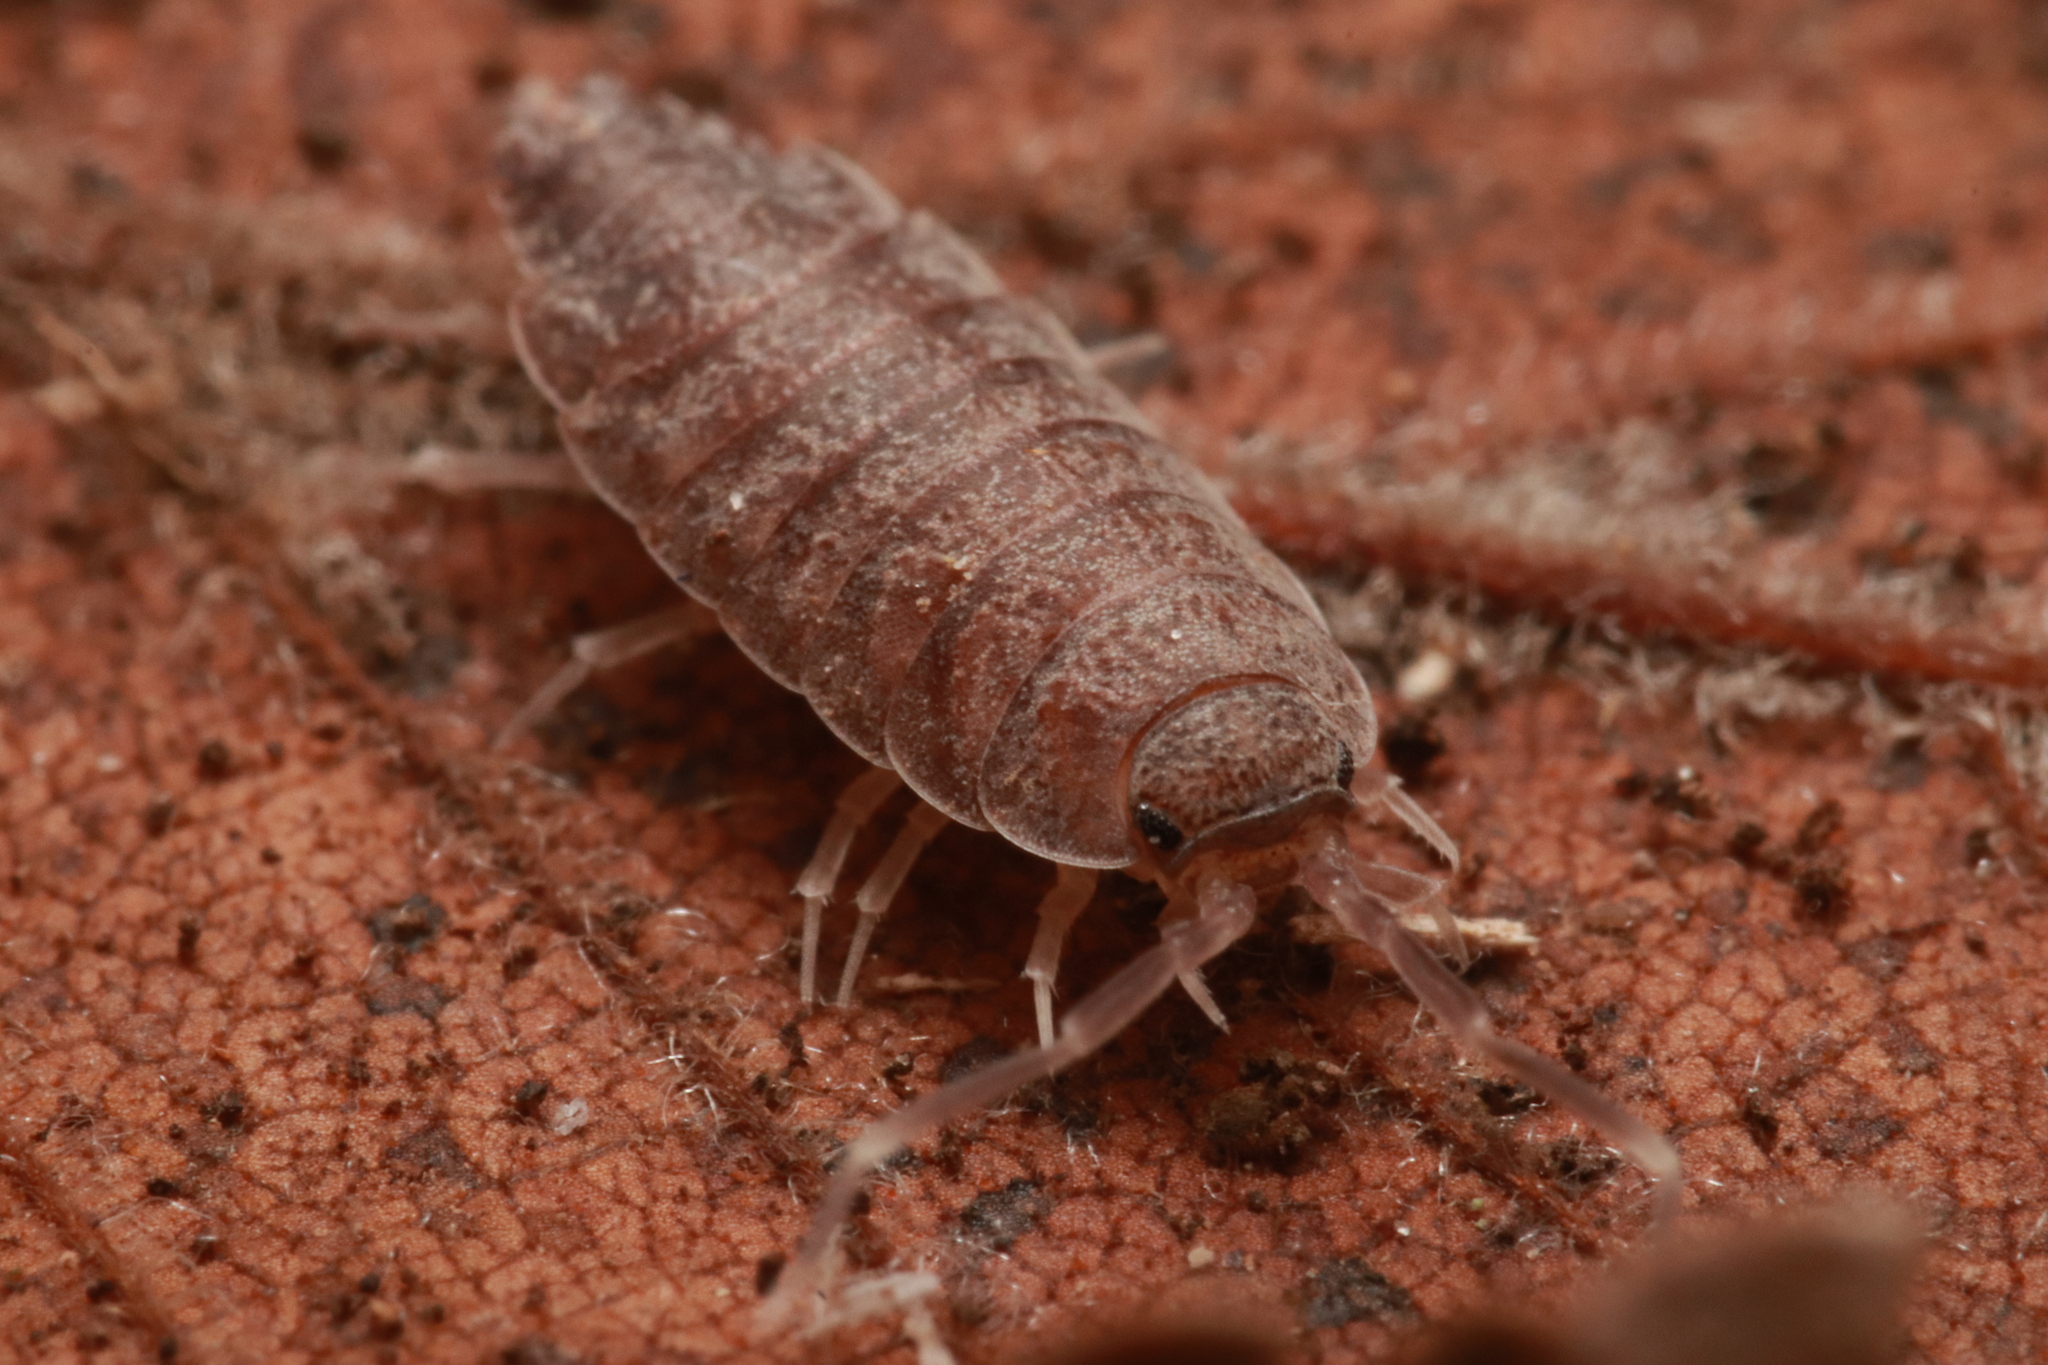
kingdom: Animalia
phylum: Arthropoda
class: Malacostraca
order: Isopoda
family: Porcellionidae
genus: Porcellionides
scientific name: Porcellionides pruinosus
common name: Plum woodlouse
